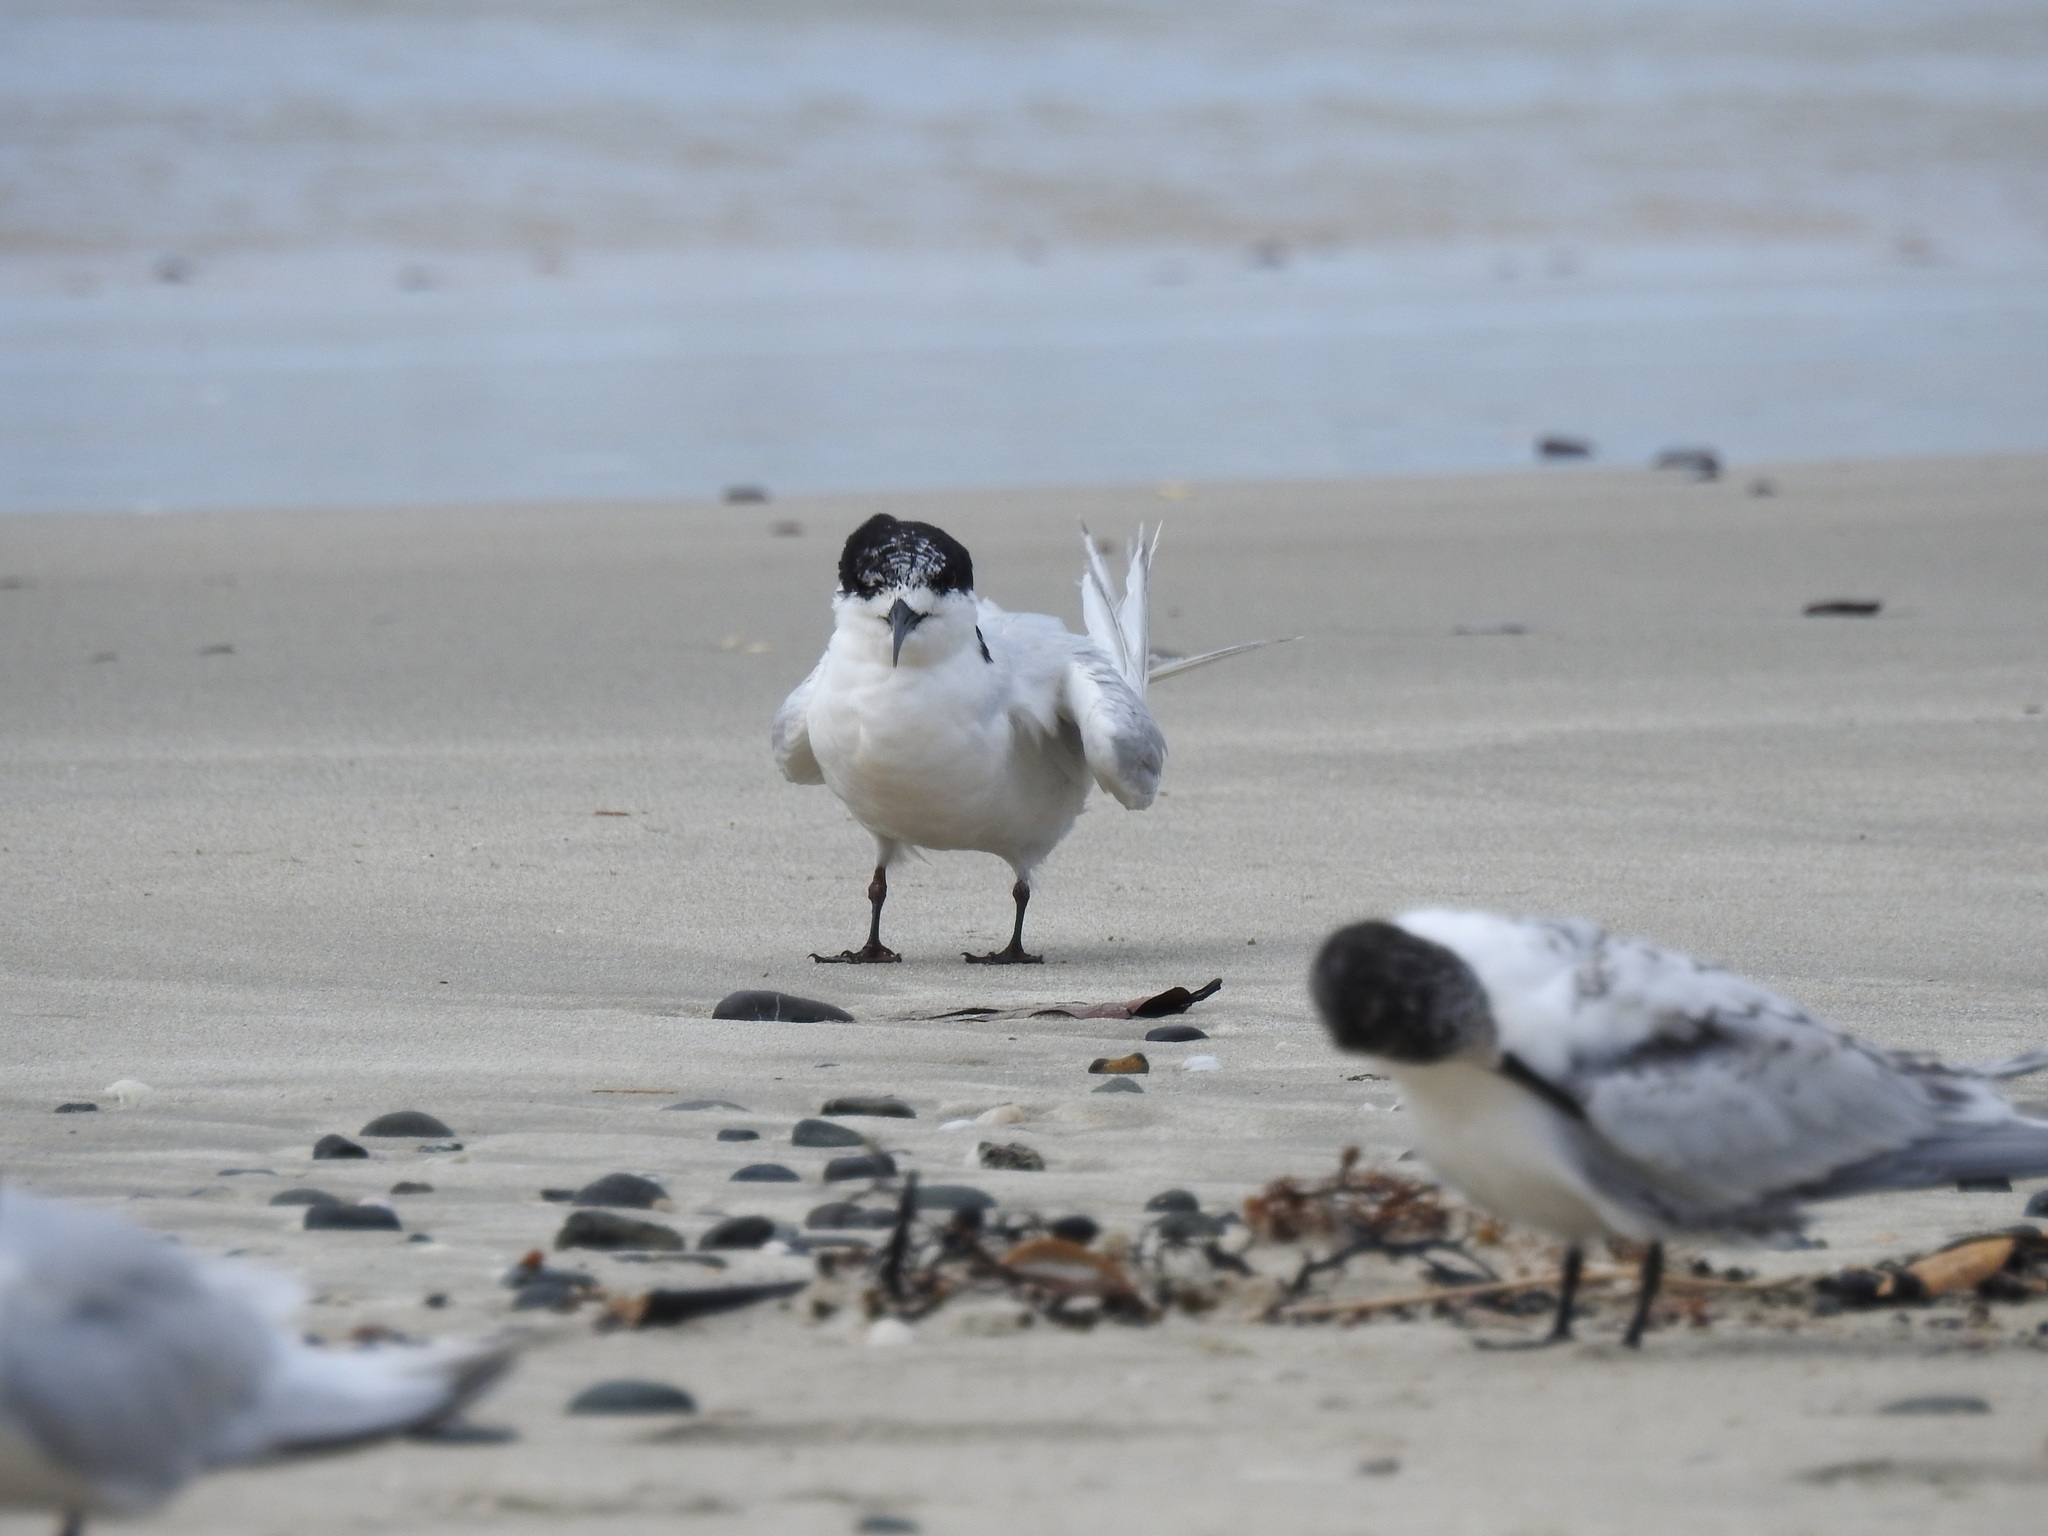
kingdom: Animalia
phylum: Chordata
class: Aves
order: Charadriiformes
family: Laridae
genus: Sterna
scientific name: Sterna striata
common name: White-fronted tern
